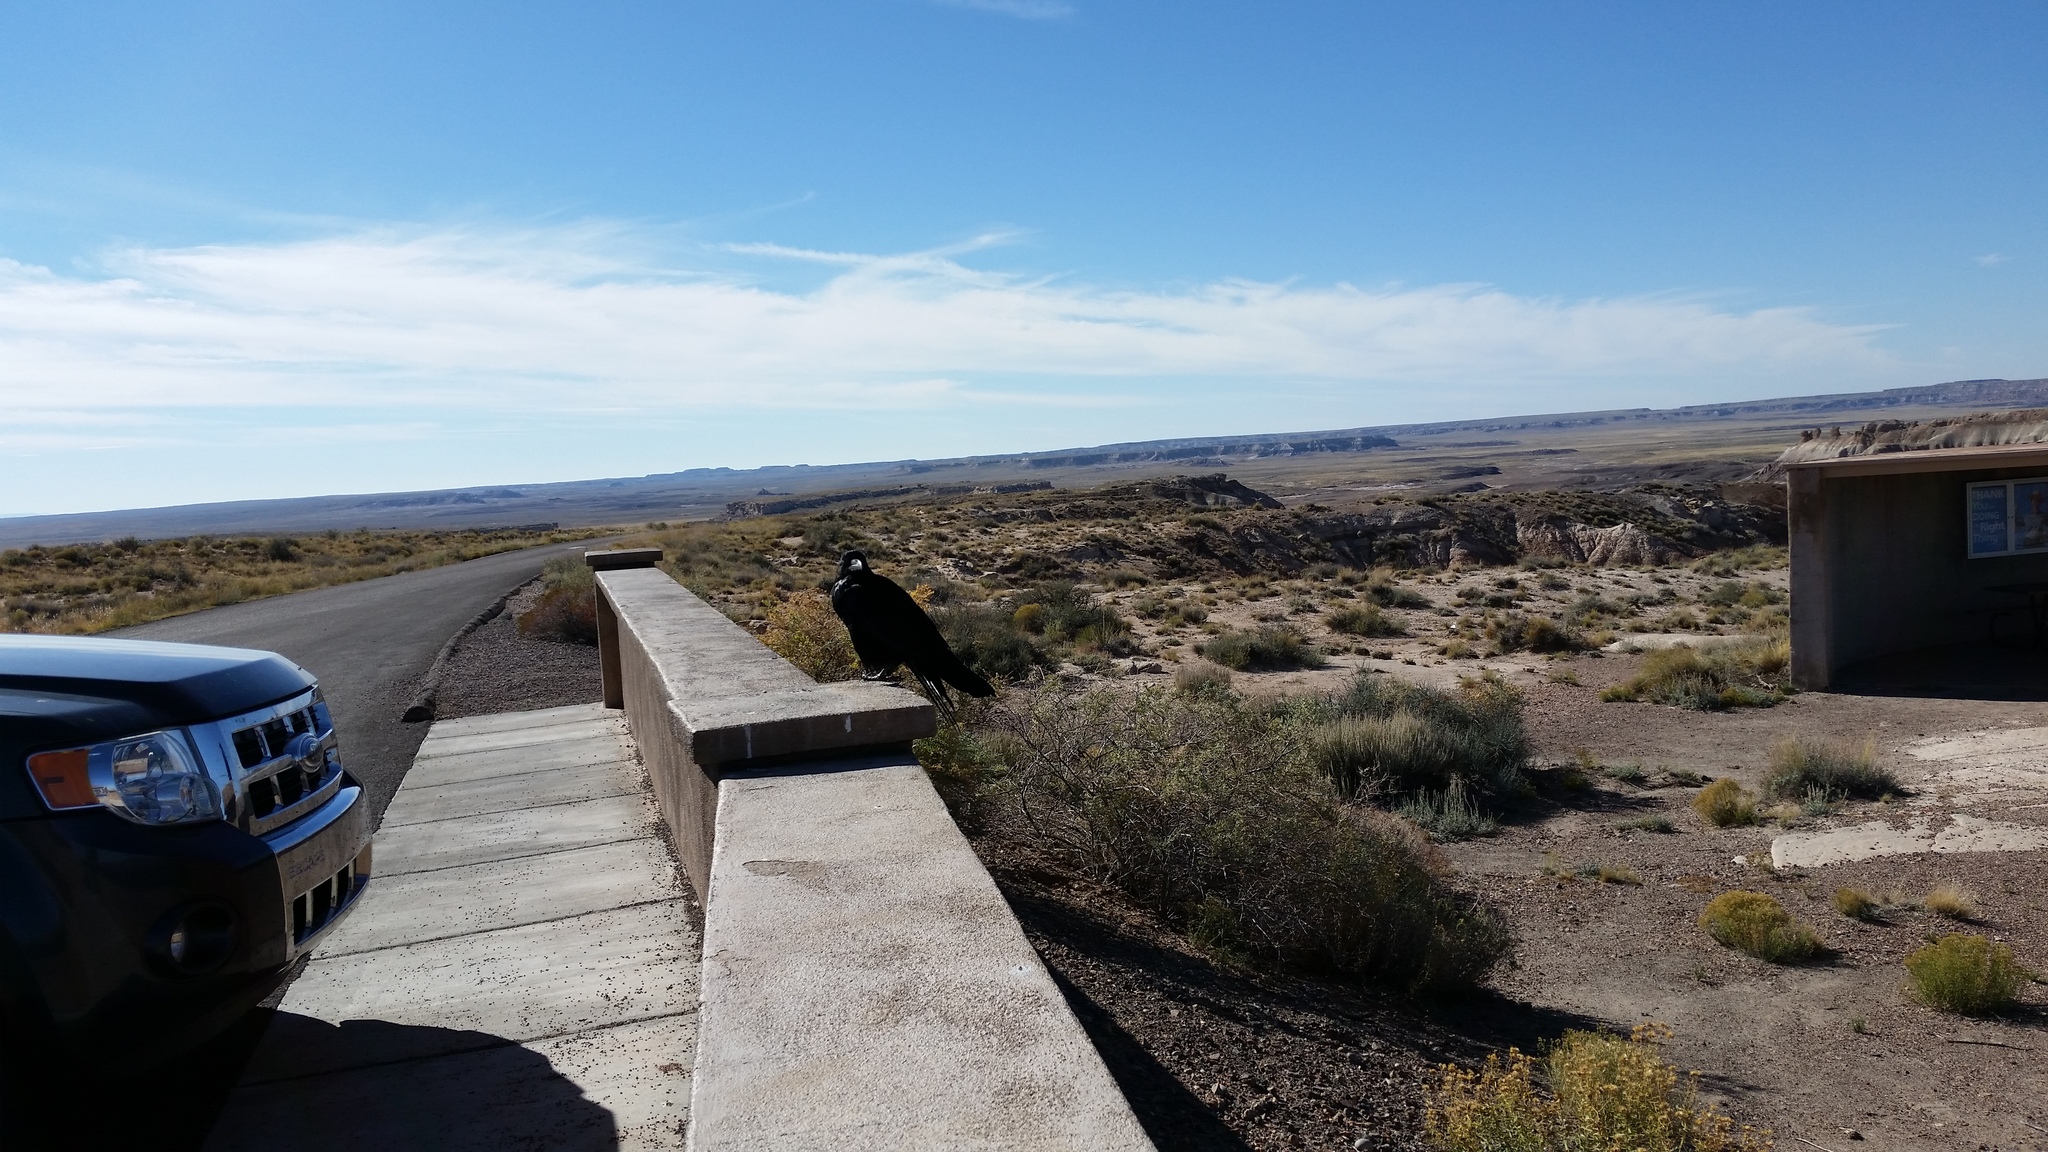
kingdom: Animalia
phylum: Chordata
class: Aves
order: Passeriformes
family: Corvidae
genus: Corvus
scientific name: Corvus corax
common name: Common raven
